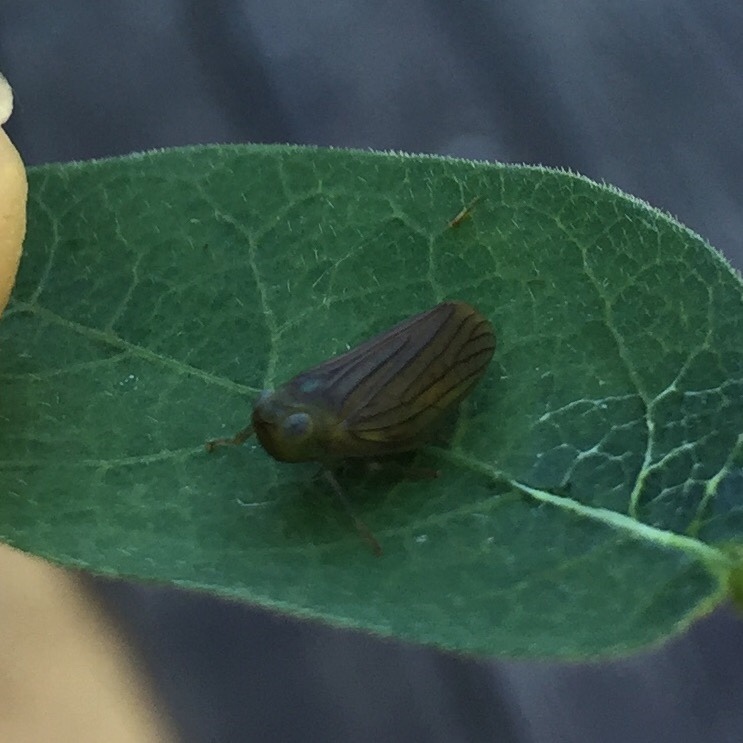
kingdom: Animalia
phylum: Arthropoda
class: Insecta
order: Hemiptera
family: Issidae
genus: Aplos
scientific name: Aplos simplex
